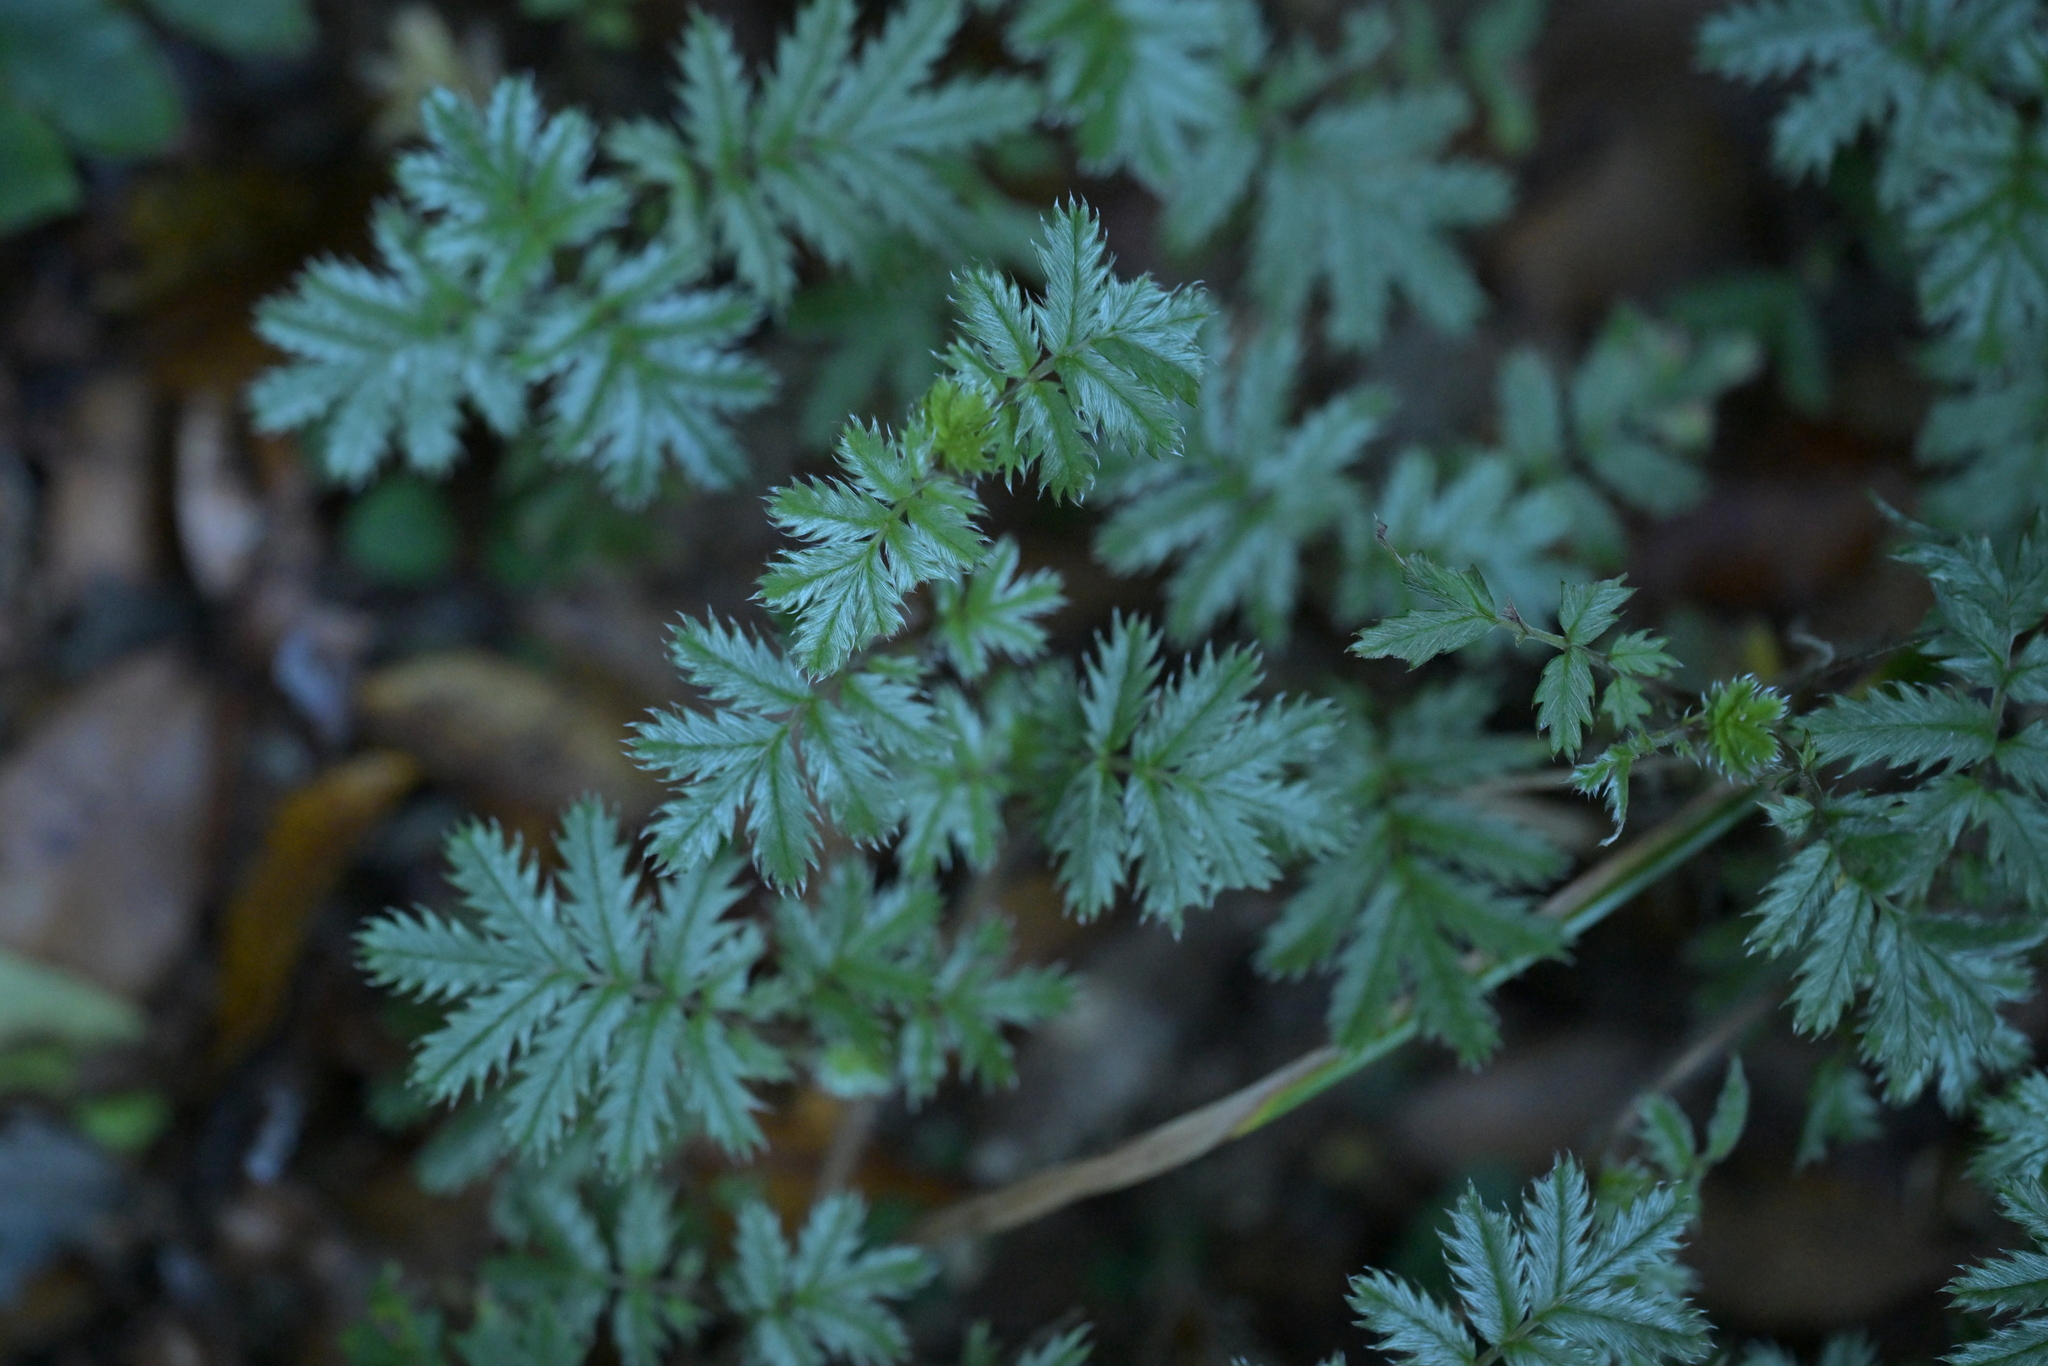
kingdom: Plantae
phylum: Tracheophyta
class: Magnoliopsida
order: Rosales
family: Rosaceae
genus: Acaena
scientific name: Acaena anserinifolia
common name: Bronze pirri-pirri-bur
